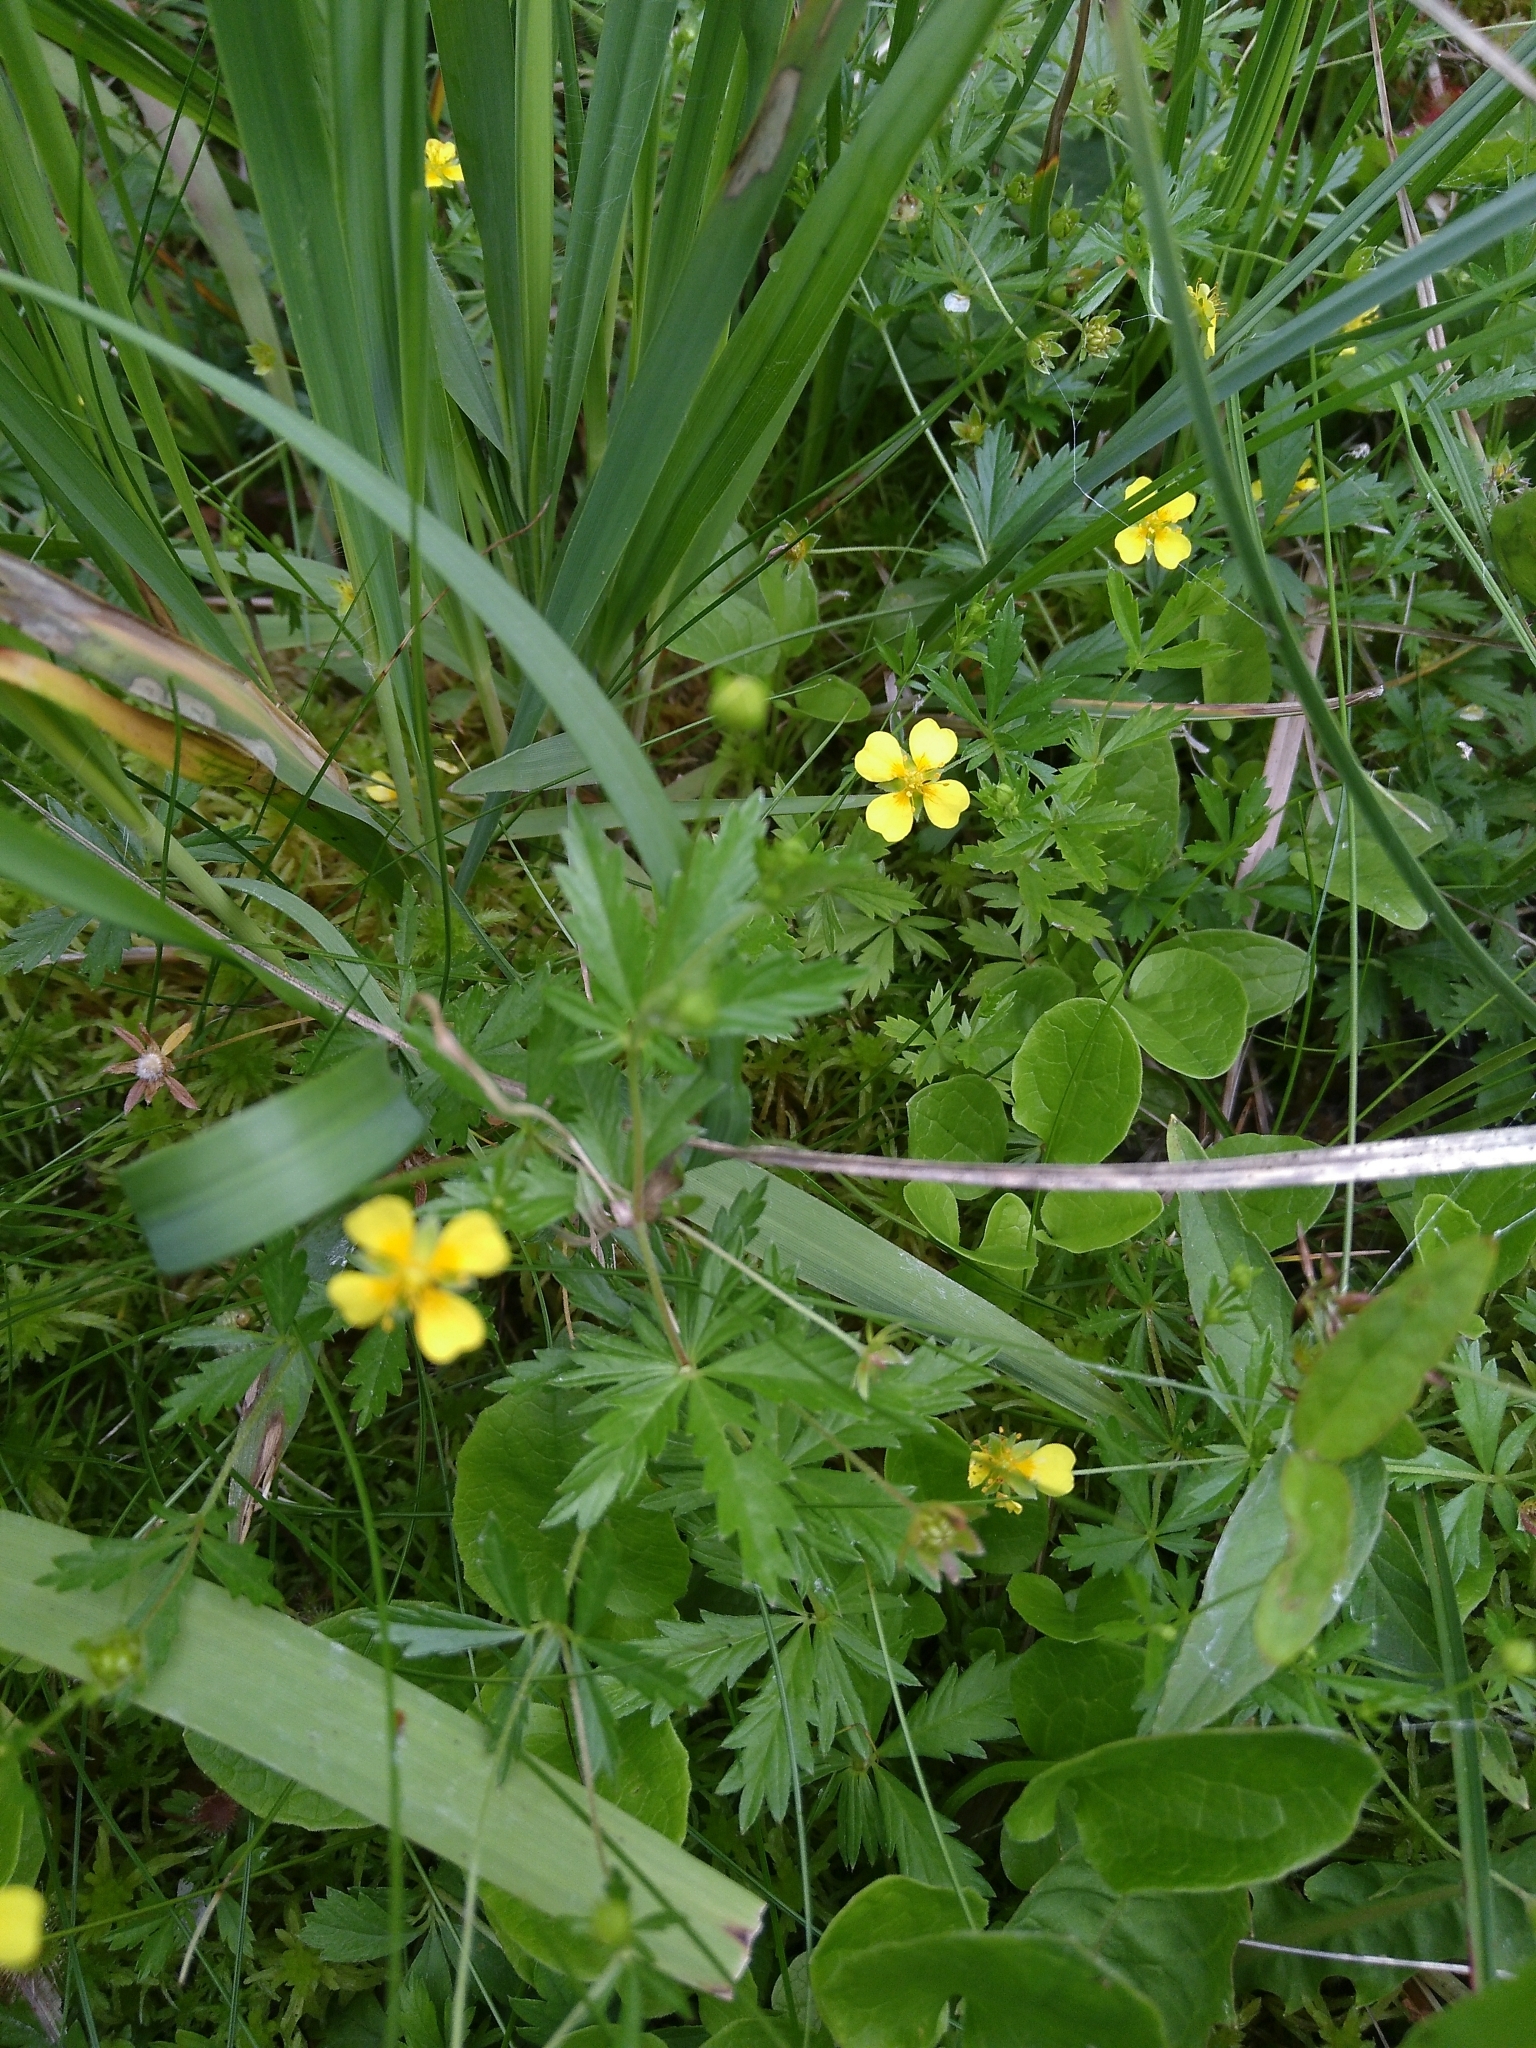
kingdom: Plantae
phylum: Tracheophyta
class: Magnoliopsida
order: Rosales
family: Rosaceae
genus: Potentilla
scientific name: Potentilla erecta
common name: Tormentil
